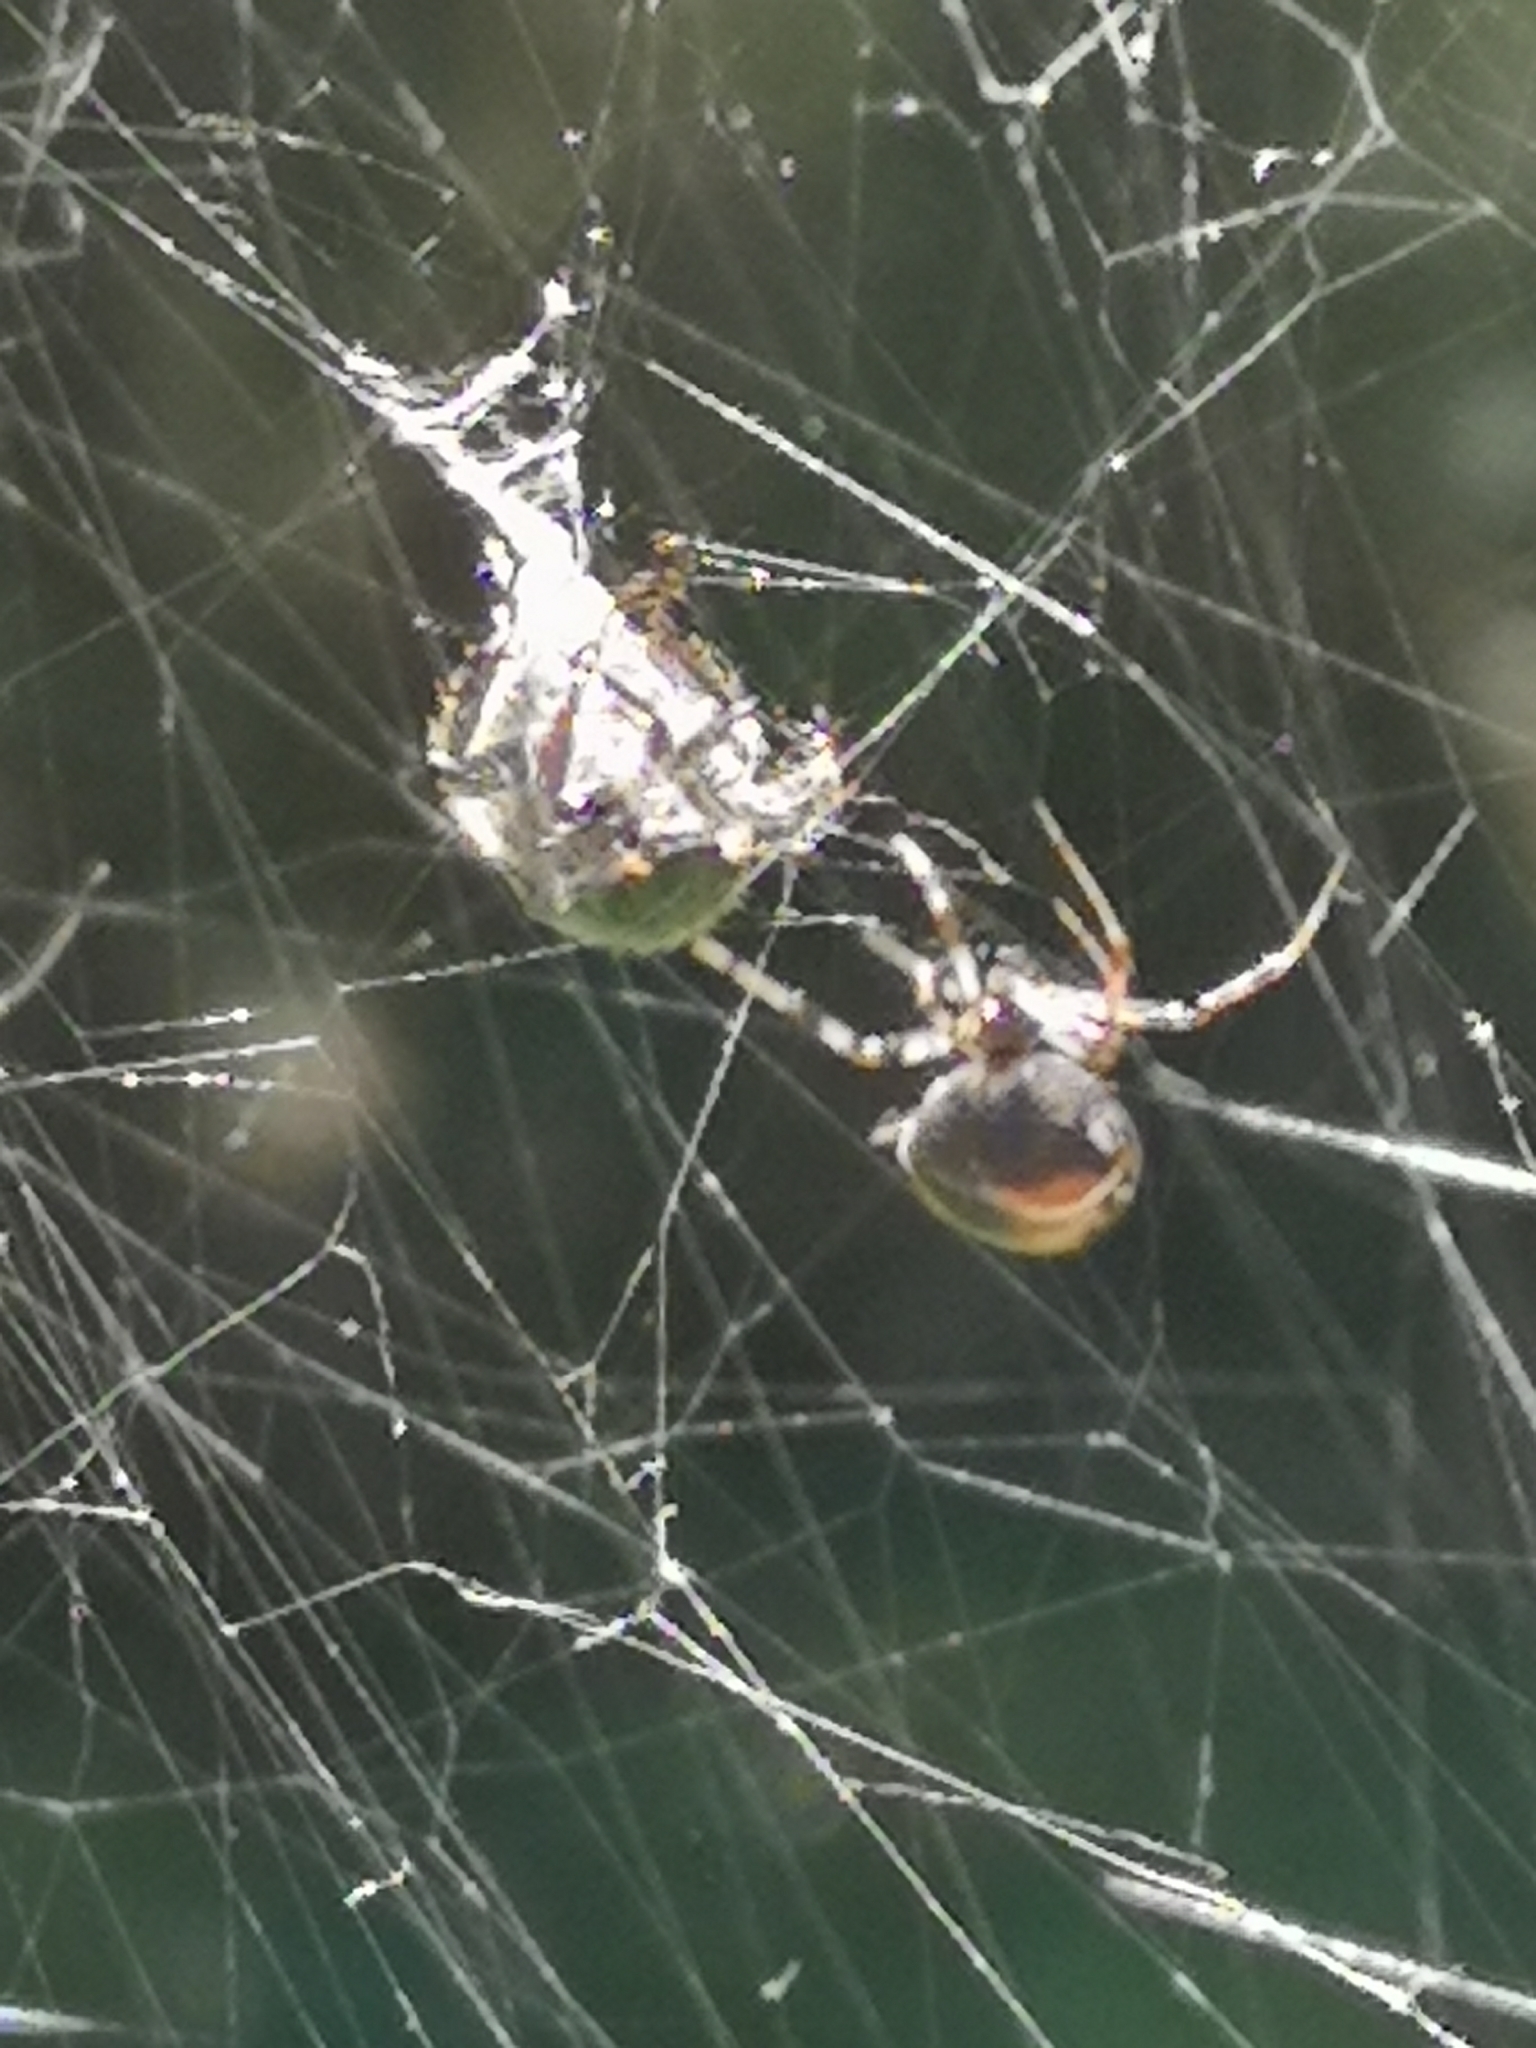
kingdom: Animalia
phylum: Arthropoda
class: Arachnida
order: Araneae
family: Theridiidae
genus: Parasteatoda
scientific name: Parasteatoda lunata
